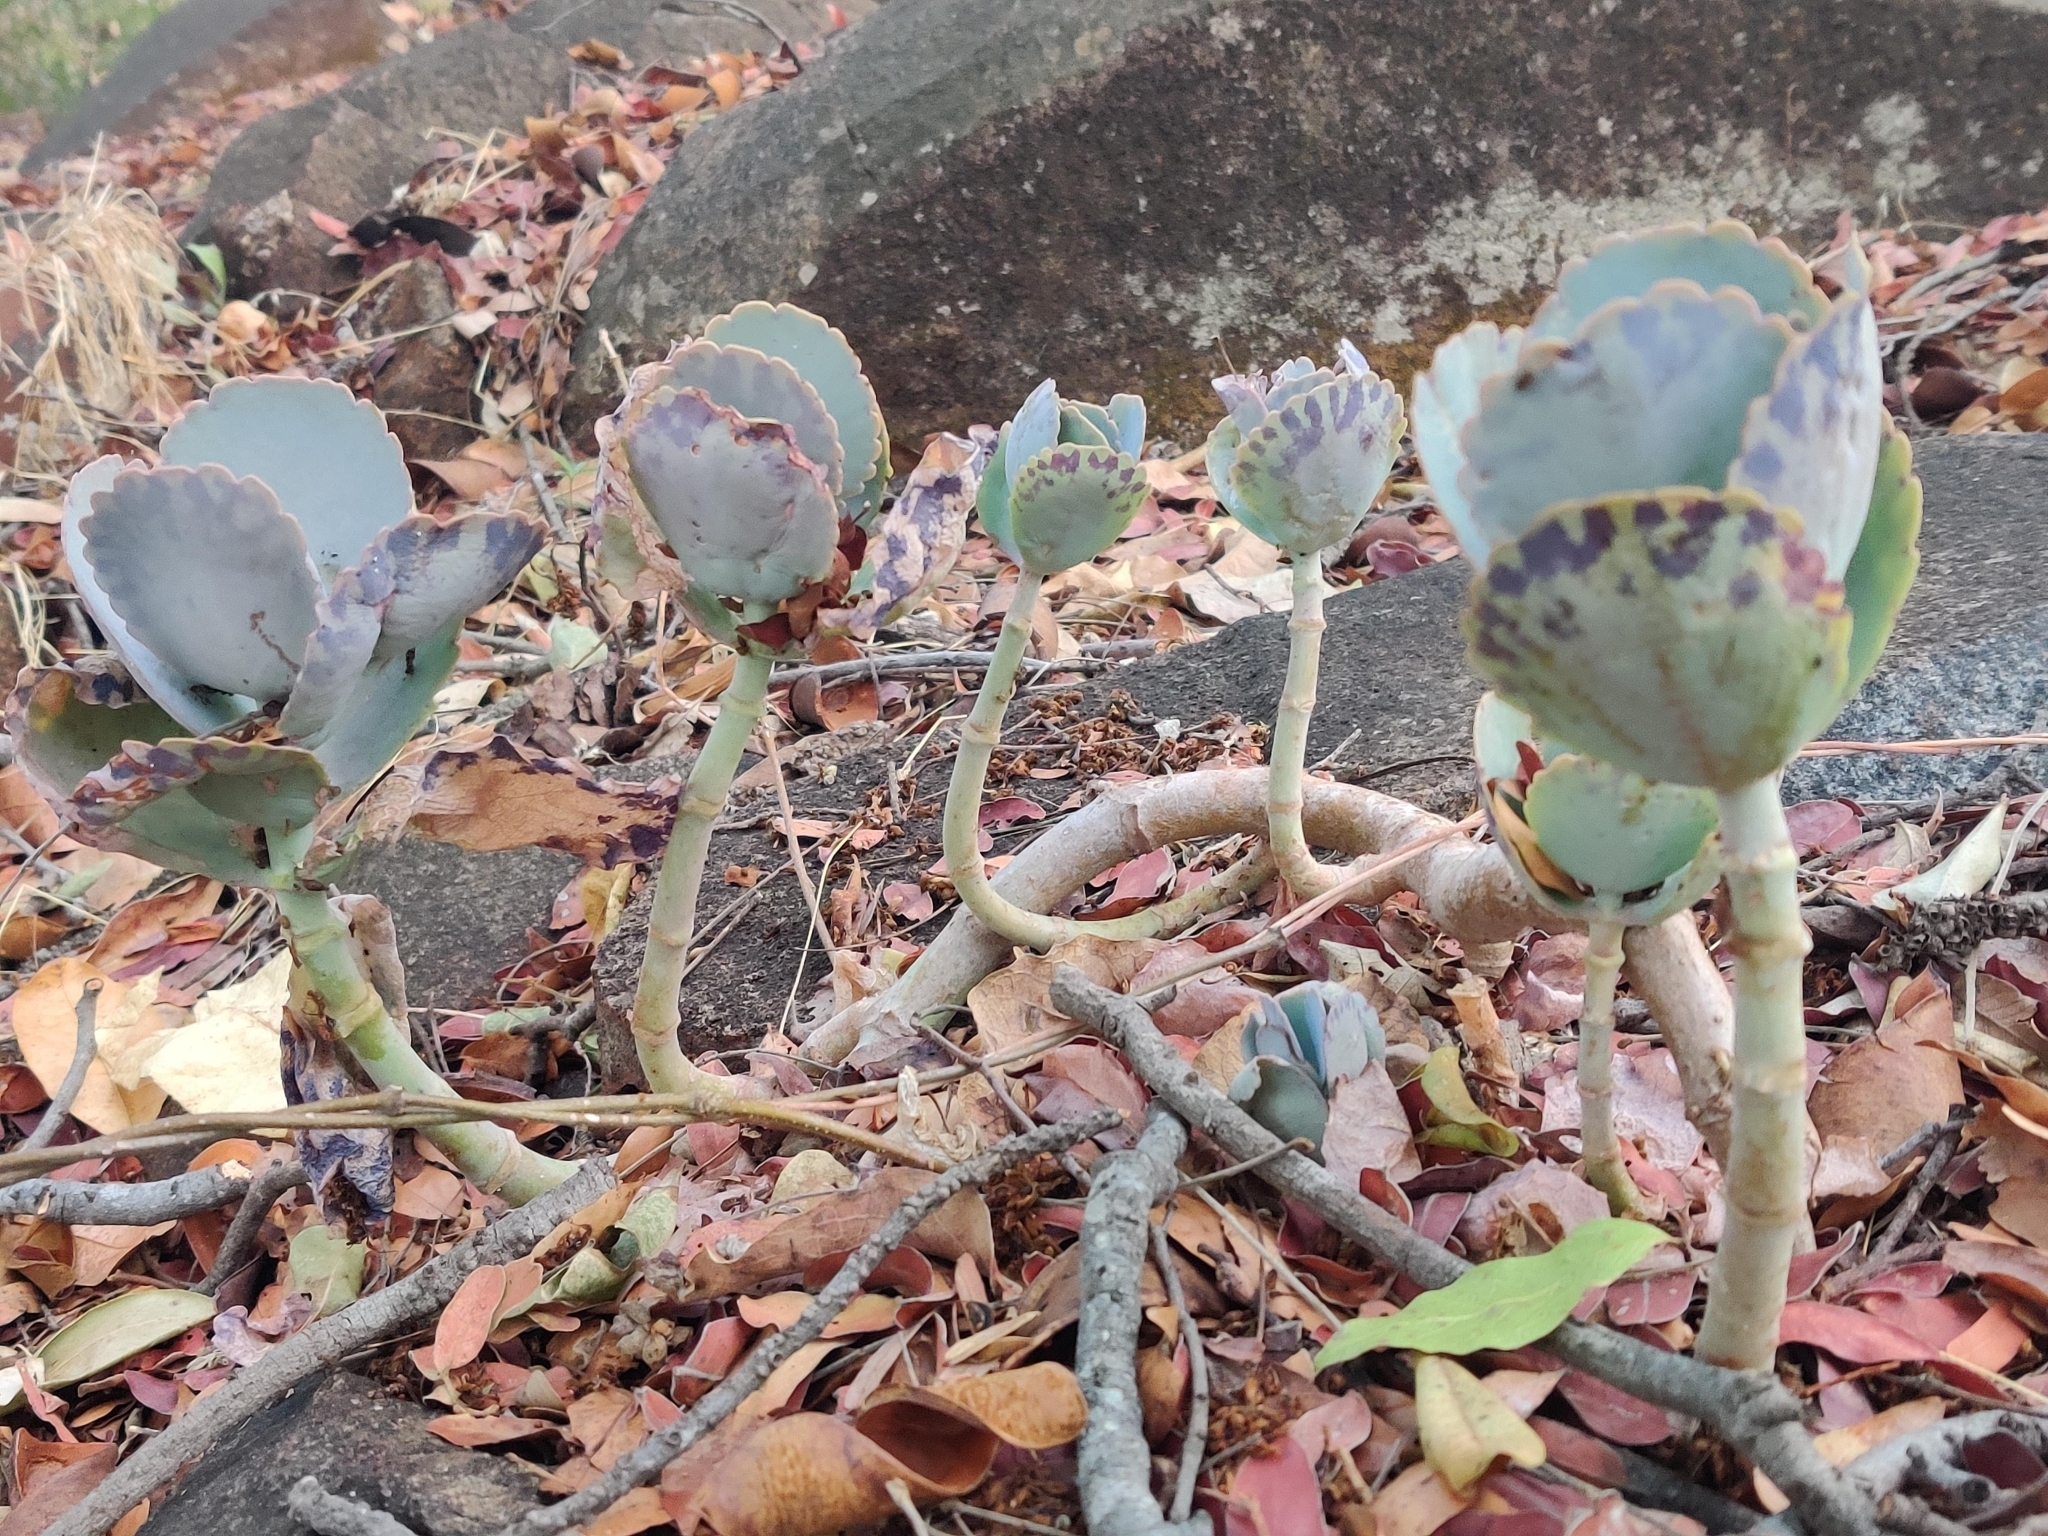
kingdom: Plantae
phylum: Tracheophyta
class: Magnoliopsida
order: Saxifragales
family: Crassulaceae
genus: Kalanchoe
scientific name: Kalanchoe marmorata
